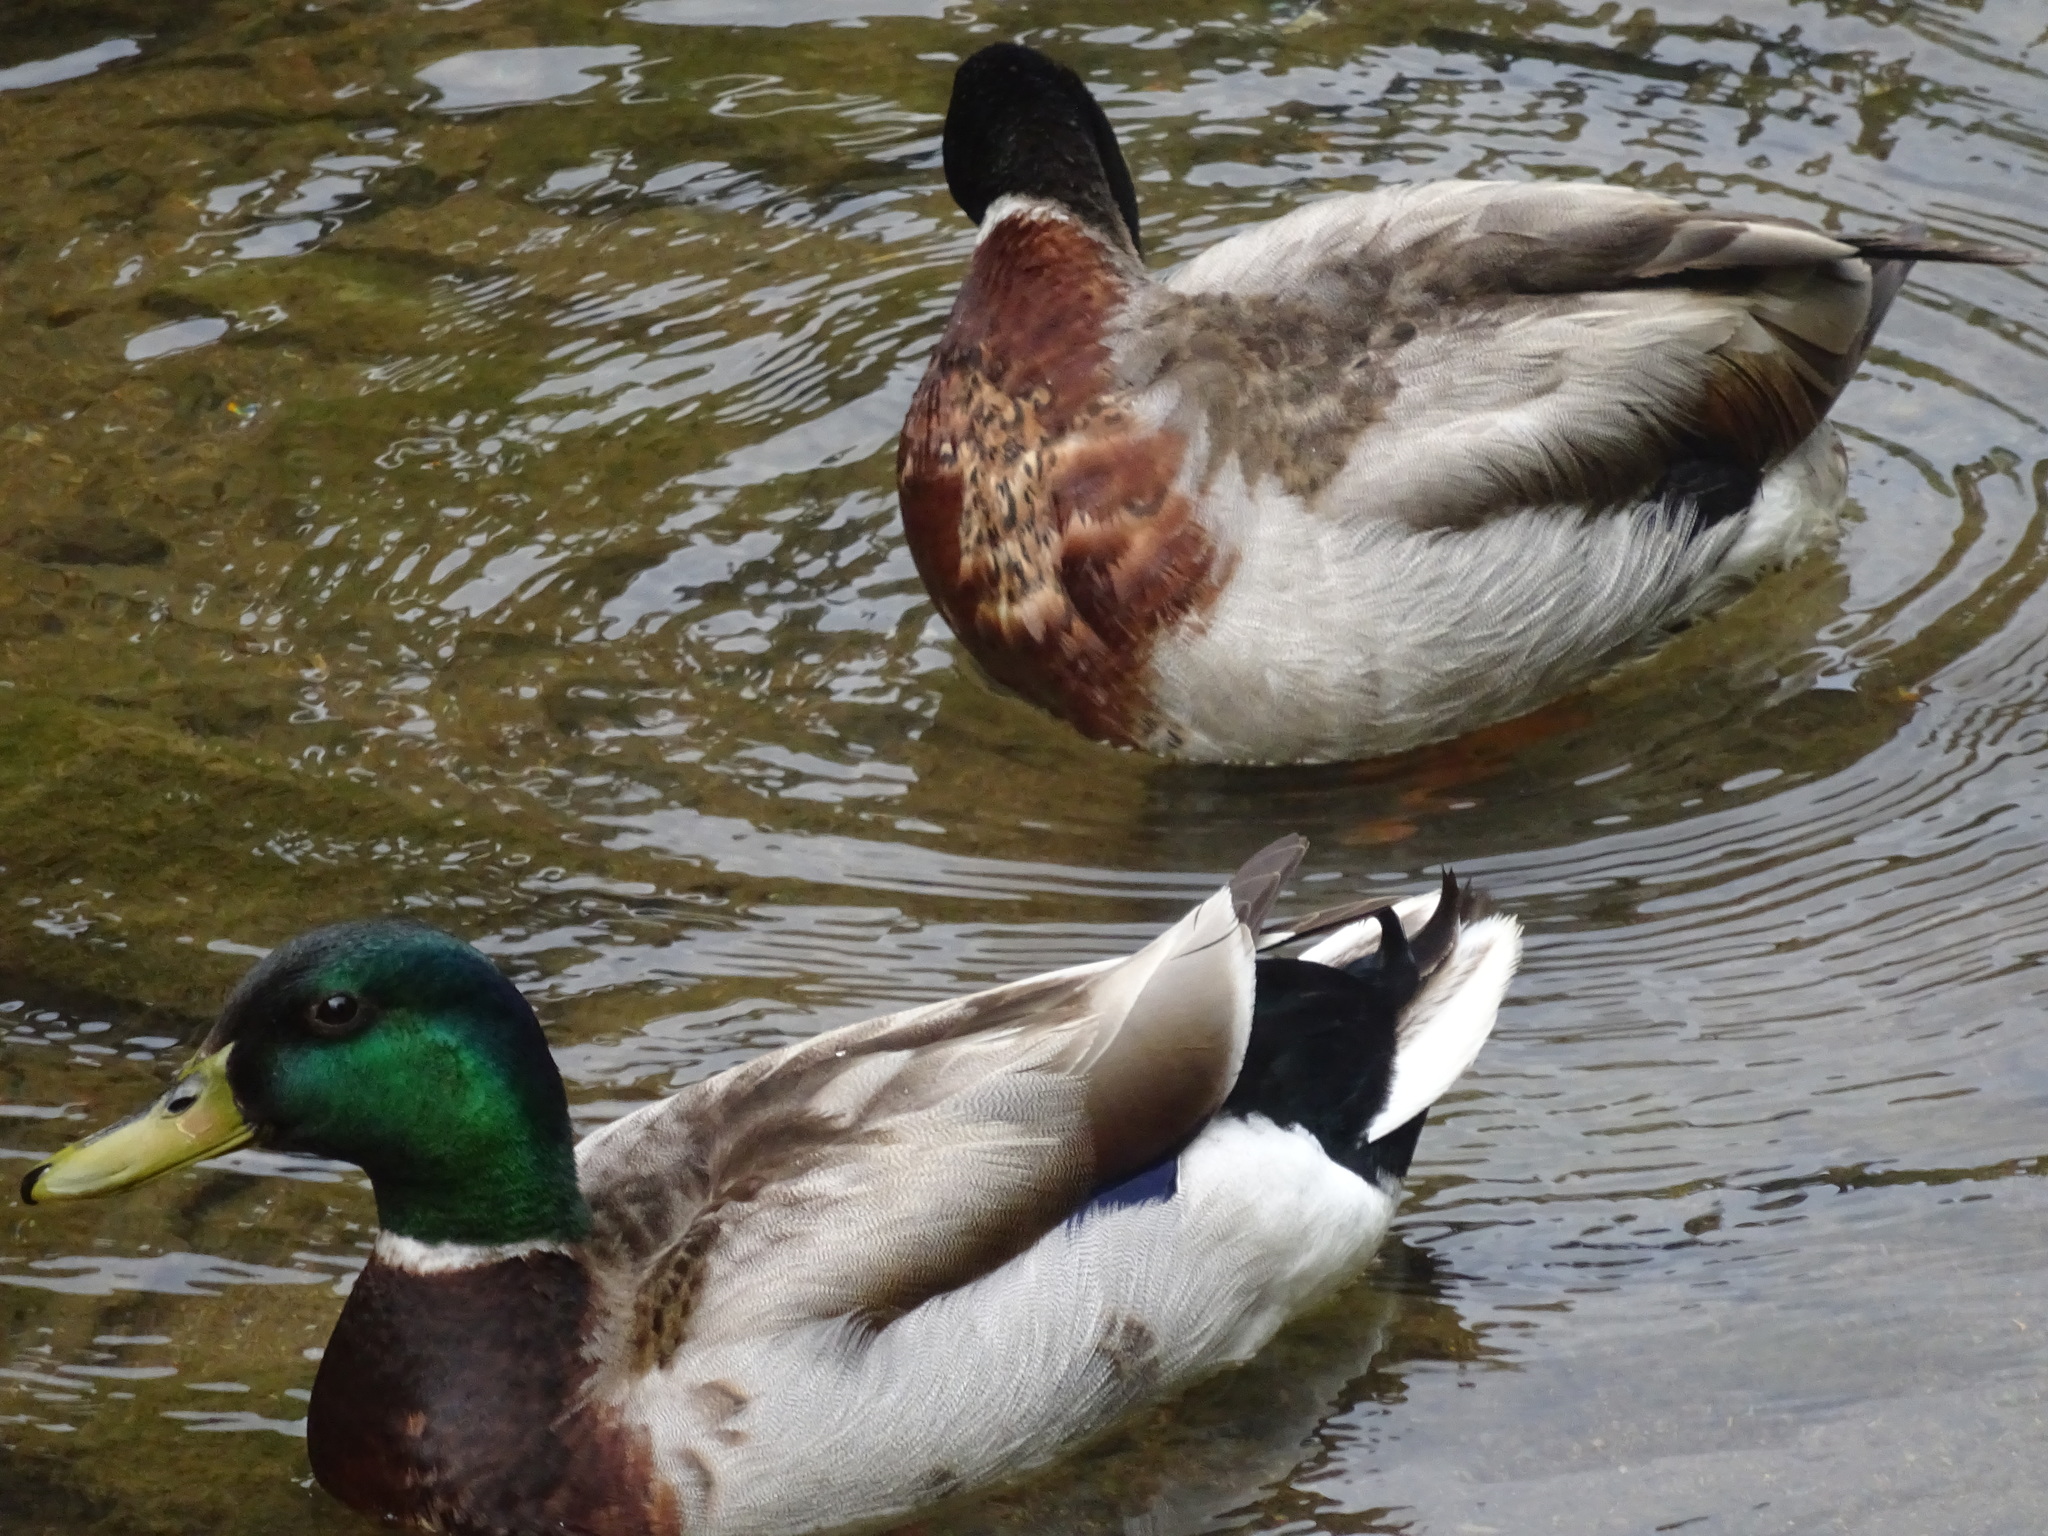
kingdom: Animalia
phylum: Chordata
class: Aves
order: Anseriformes
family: Anatidae
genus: Anas
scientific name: Anas platyrhynchos
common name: Mallard
